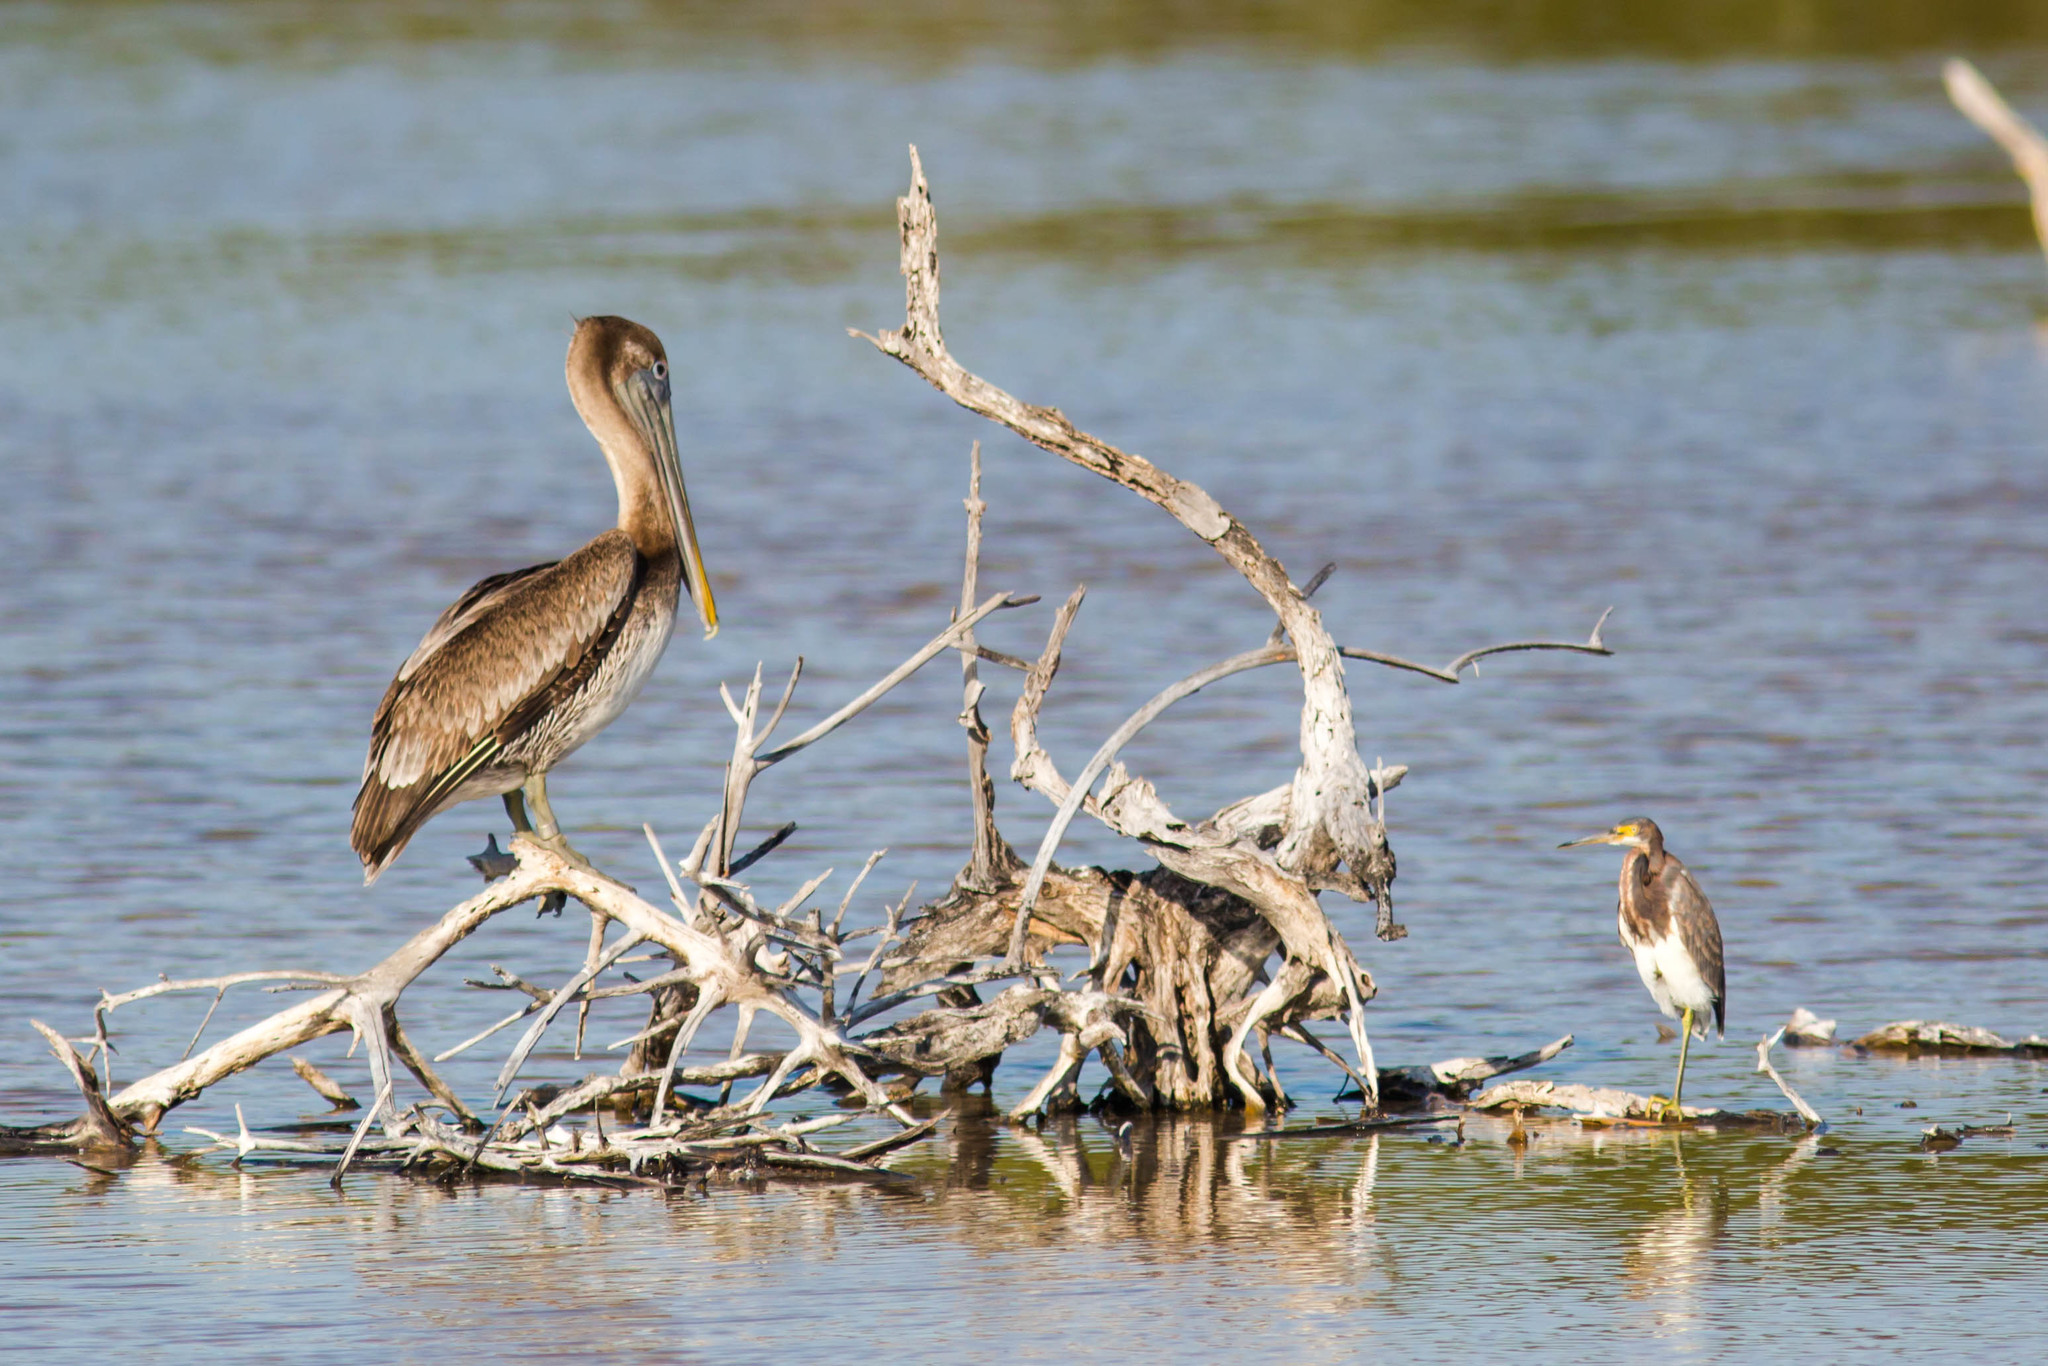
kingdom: Animalia
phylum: Chordata
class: Aves
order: Pelecaniformes
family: Ardeidae
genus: Egretta
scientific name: Egretta tricolor
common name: Tricolored heron
